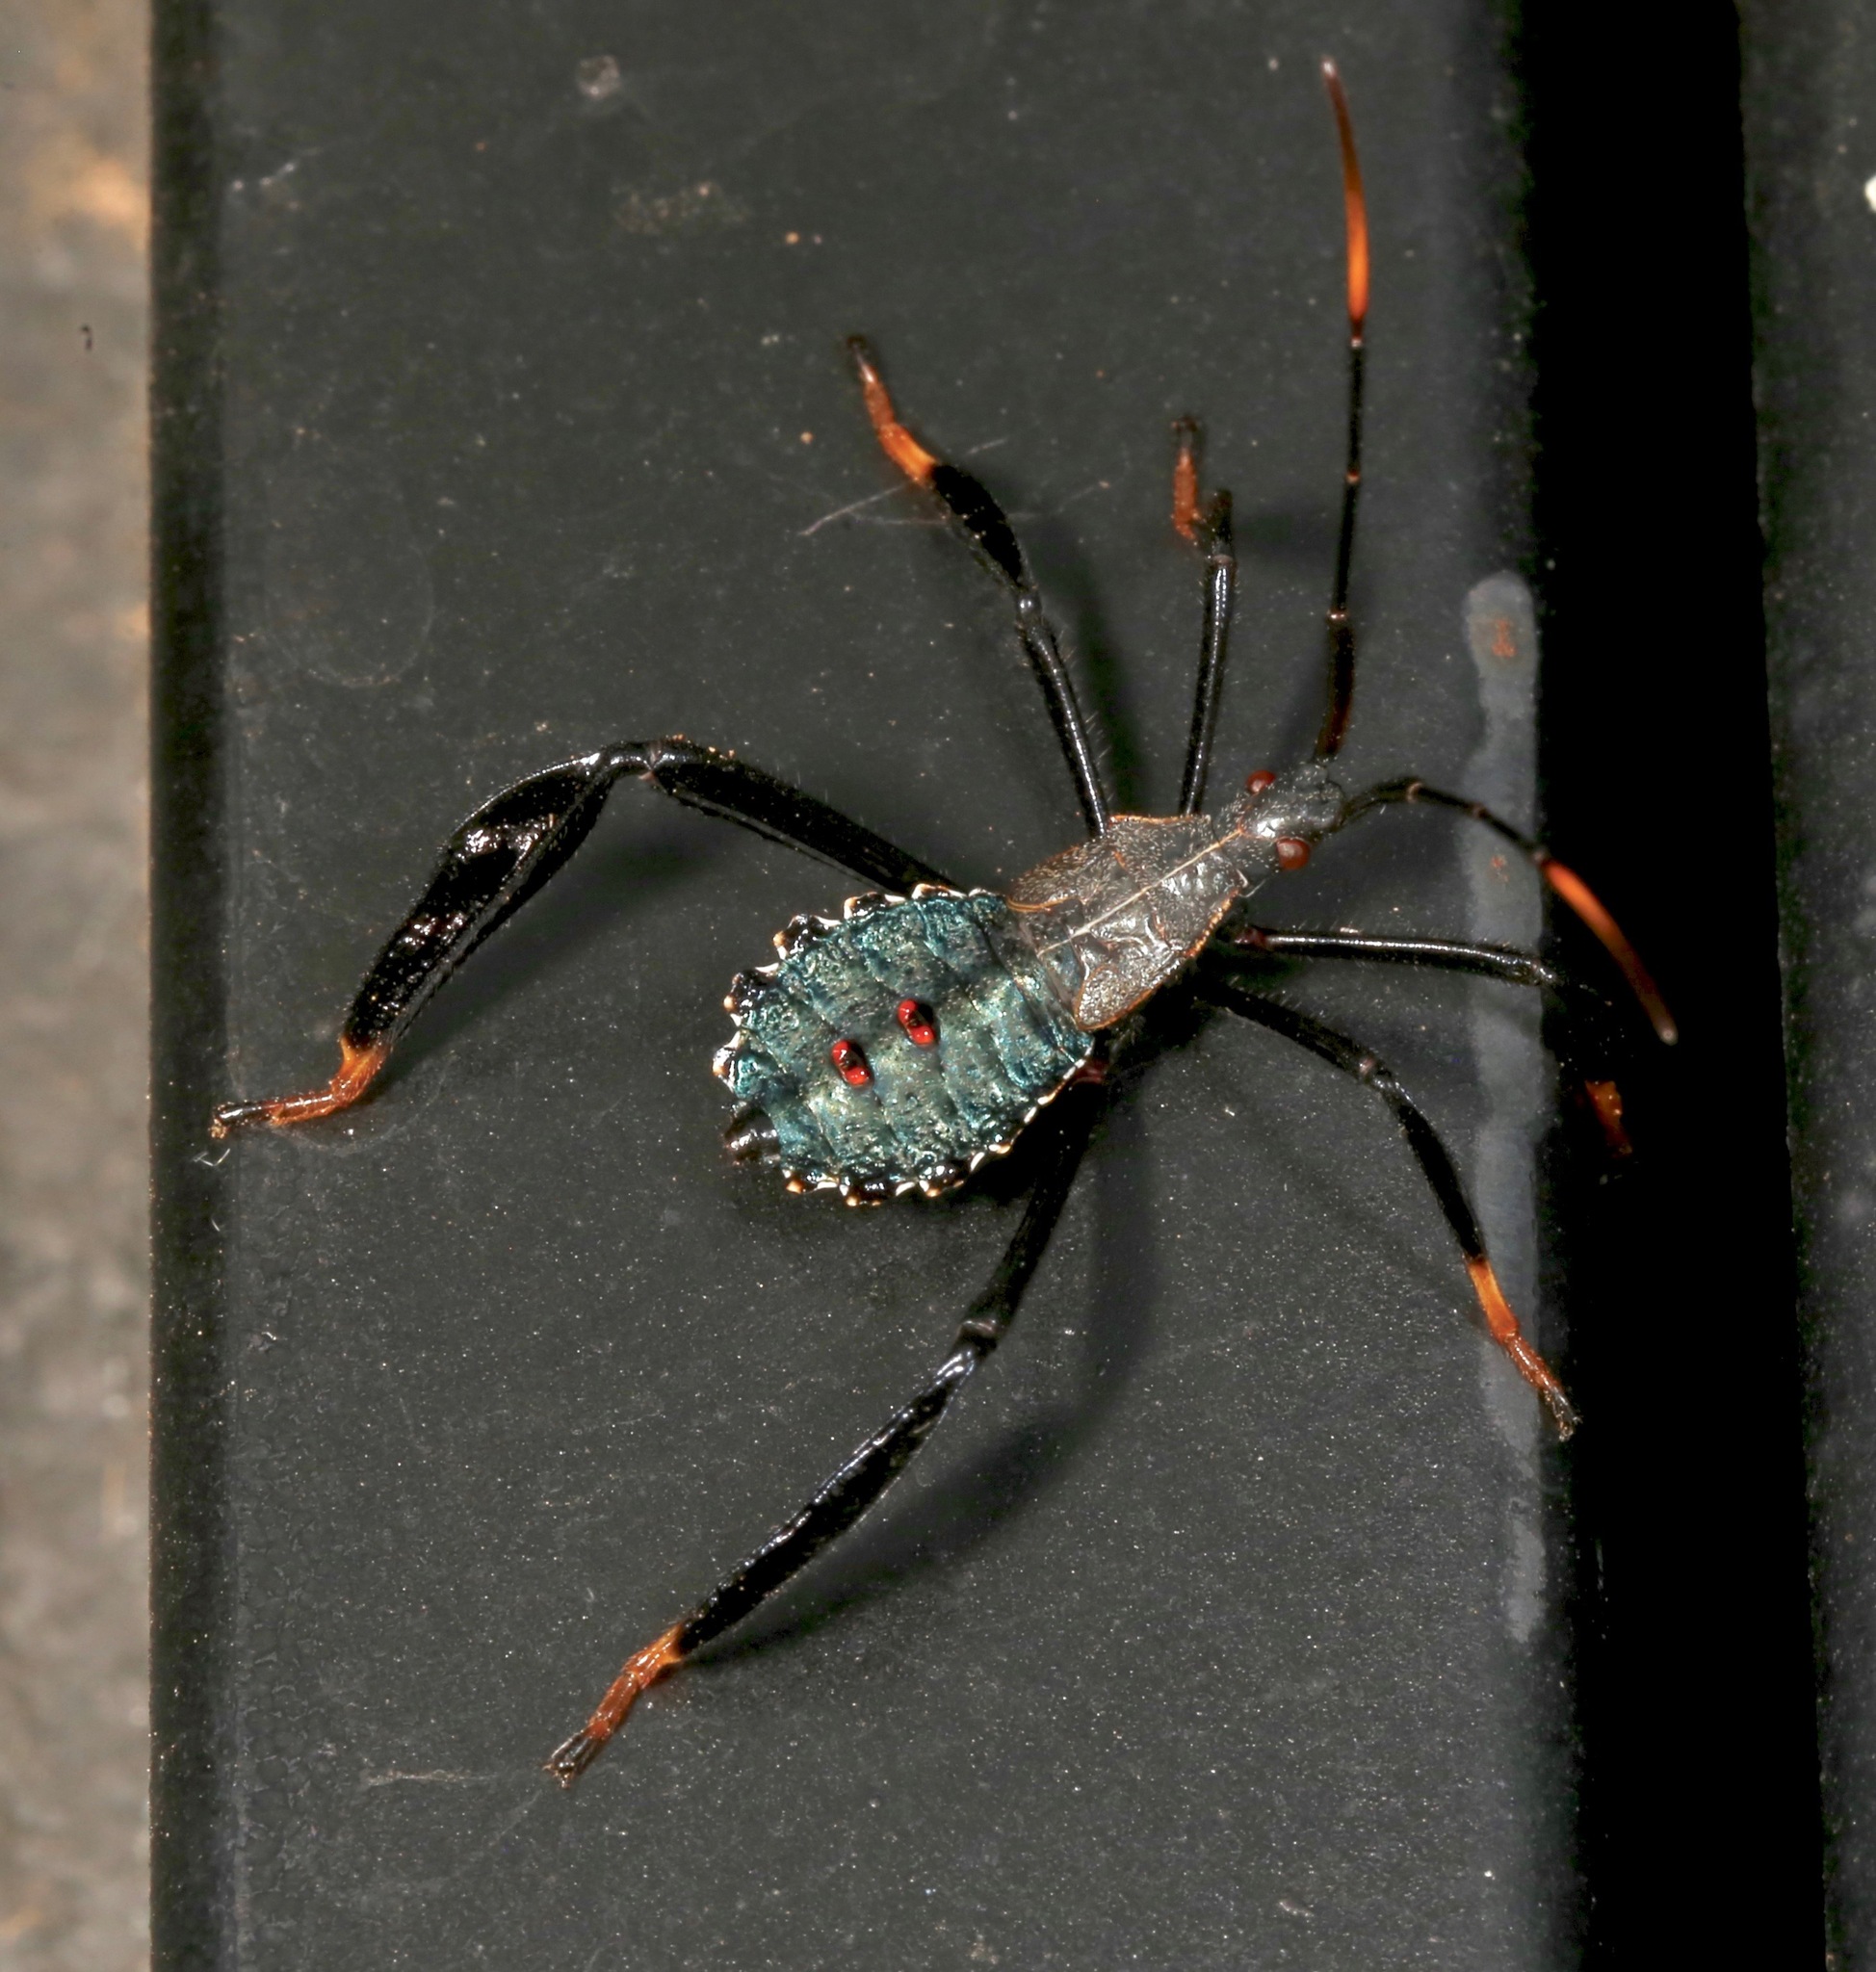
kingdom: Animalia
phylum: Arthropoda
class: Insecta
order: Hemiptera
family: Coreidae
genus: Acanthocephala
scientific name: Acanthocephala thomasi
